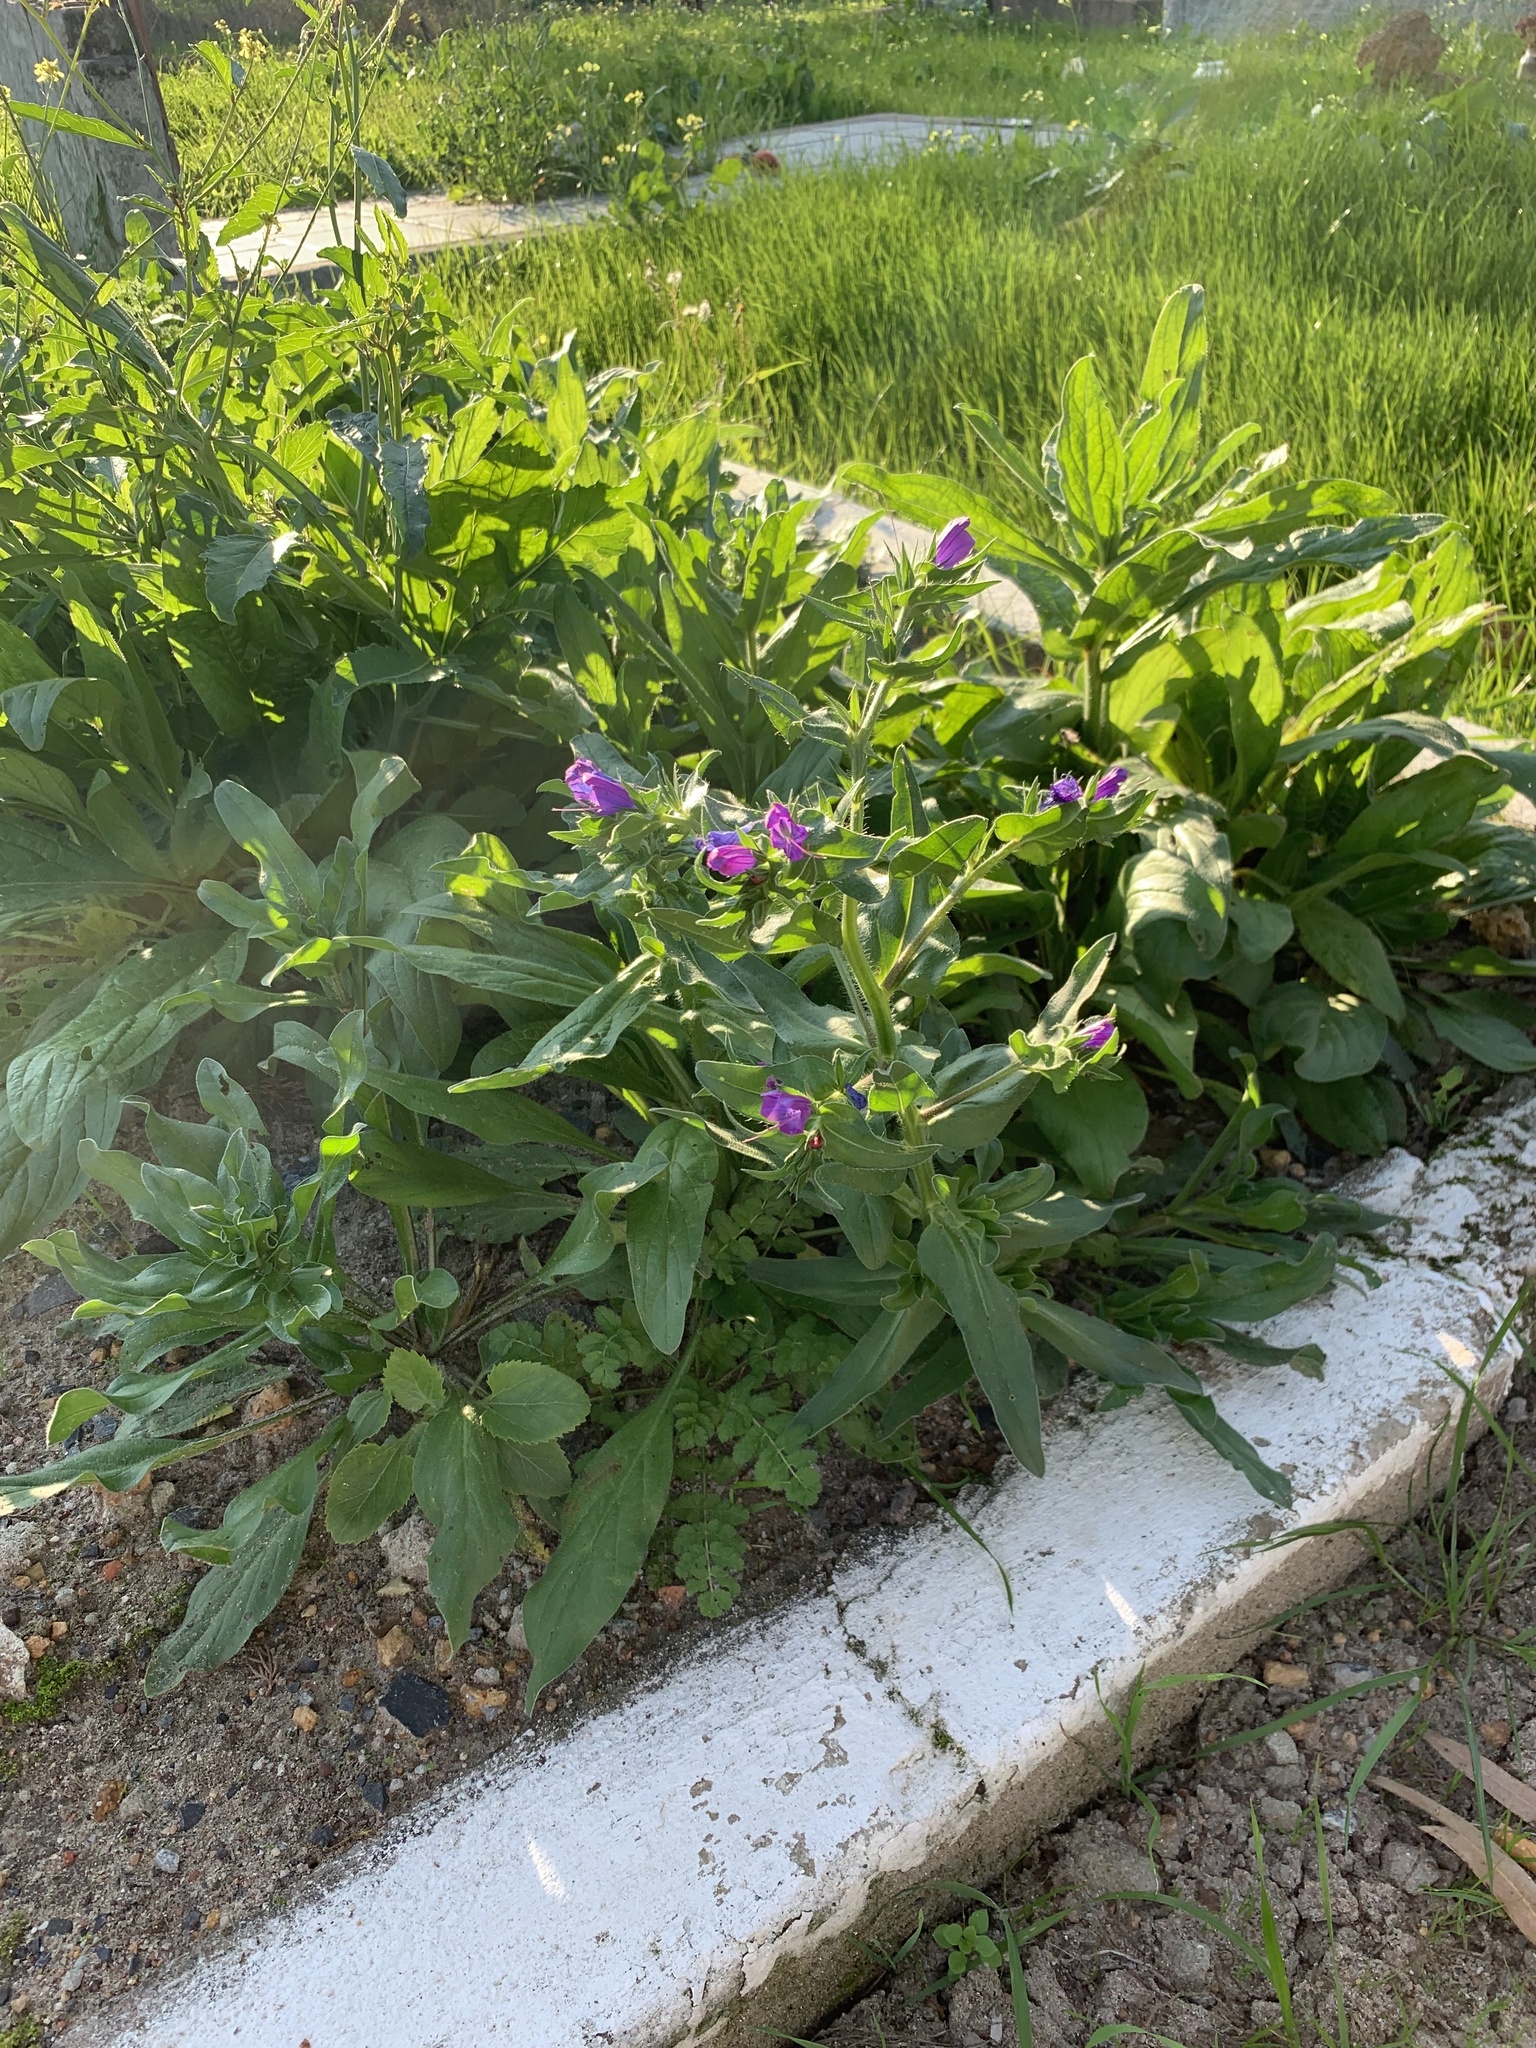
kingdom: Plantae
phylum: Tracheophyta
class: Magnoliopsida
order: Boraginales
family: Boraginaceae
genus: Echium
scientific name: Echium plantagineum
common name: Purple viper's-bugloss
